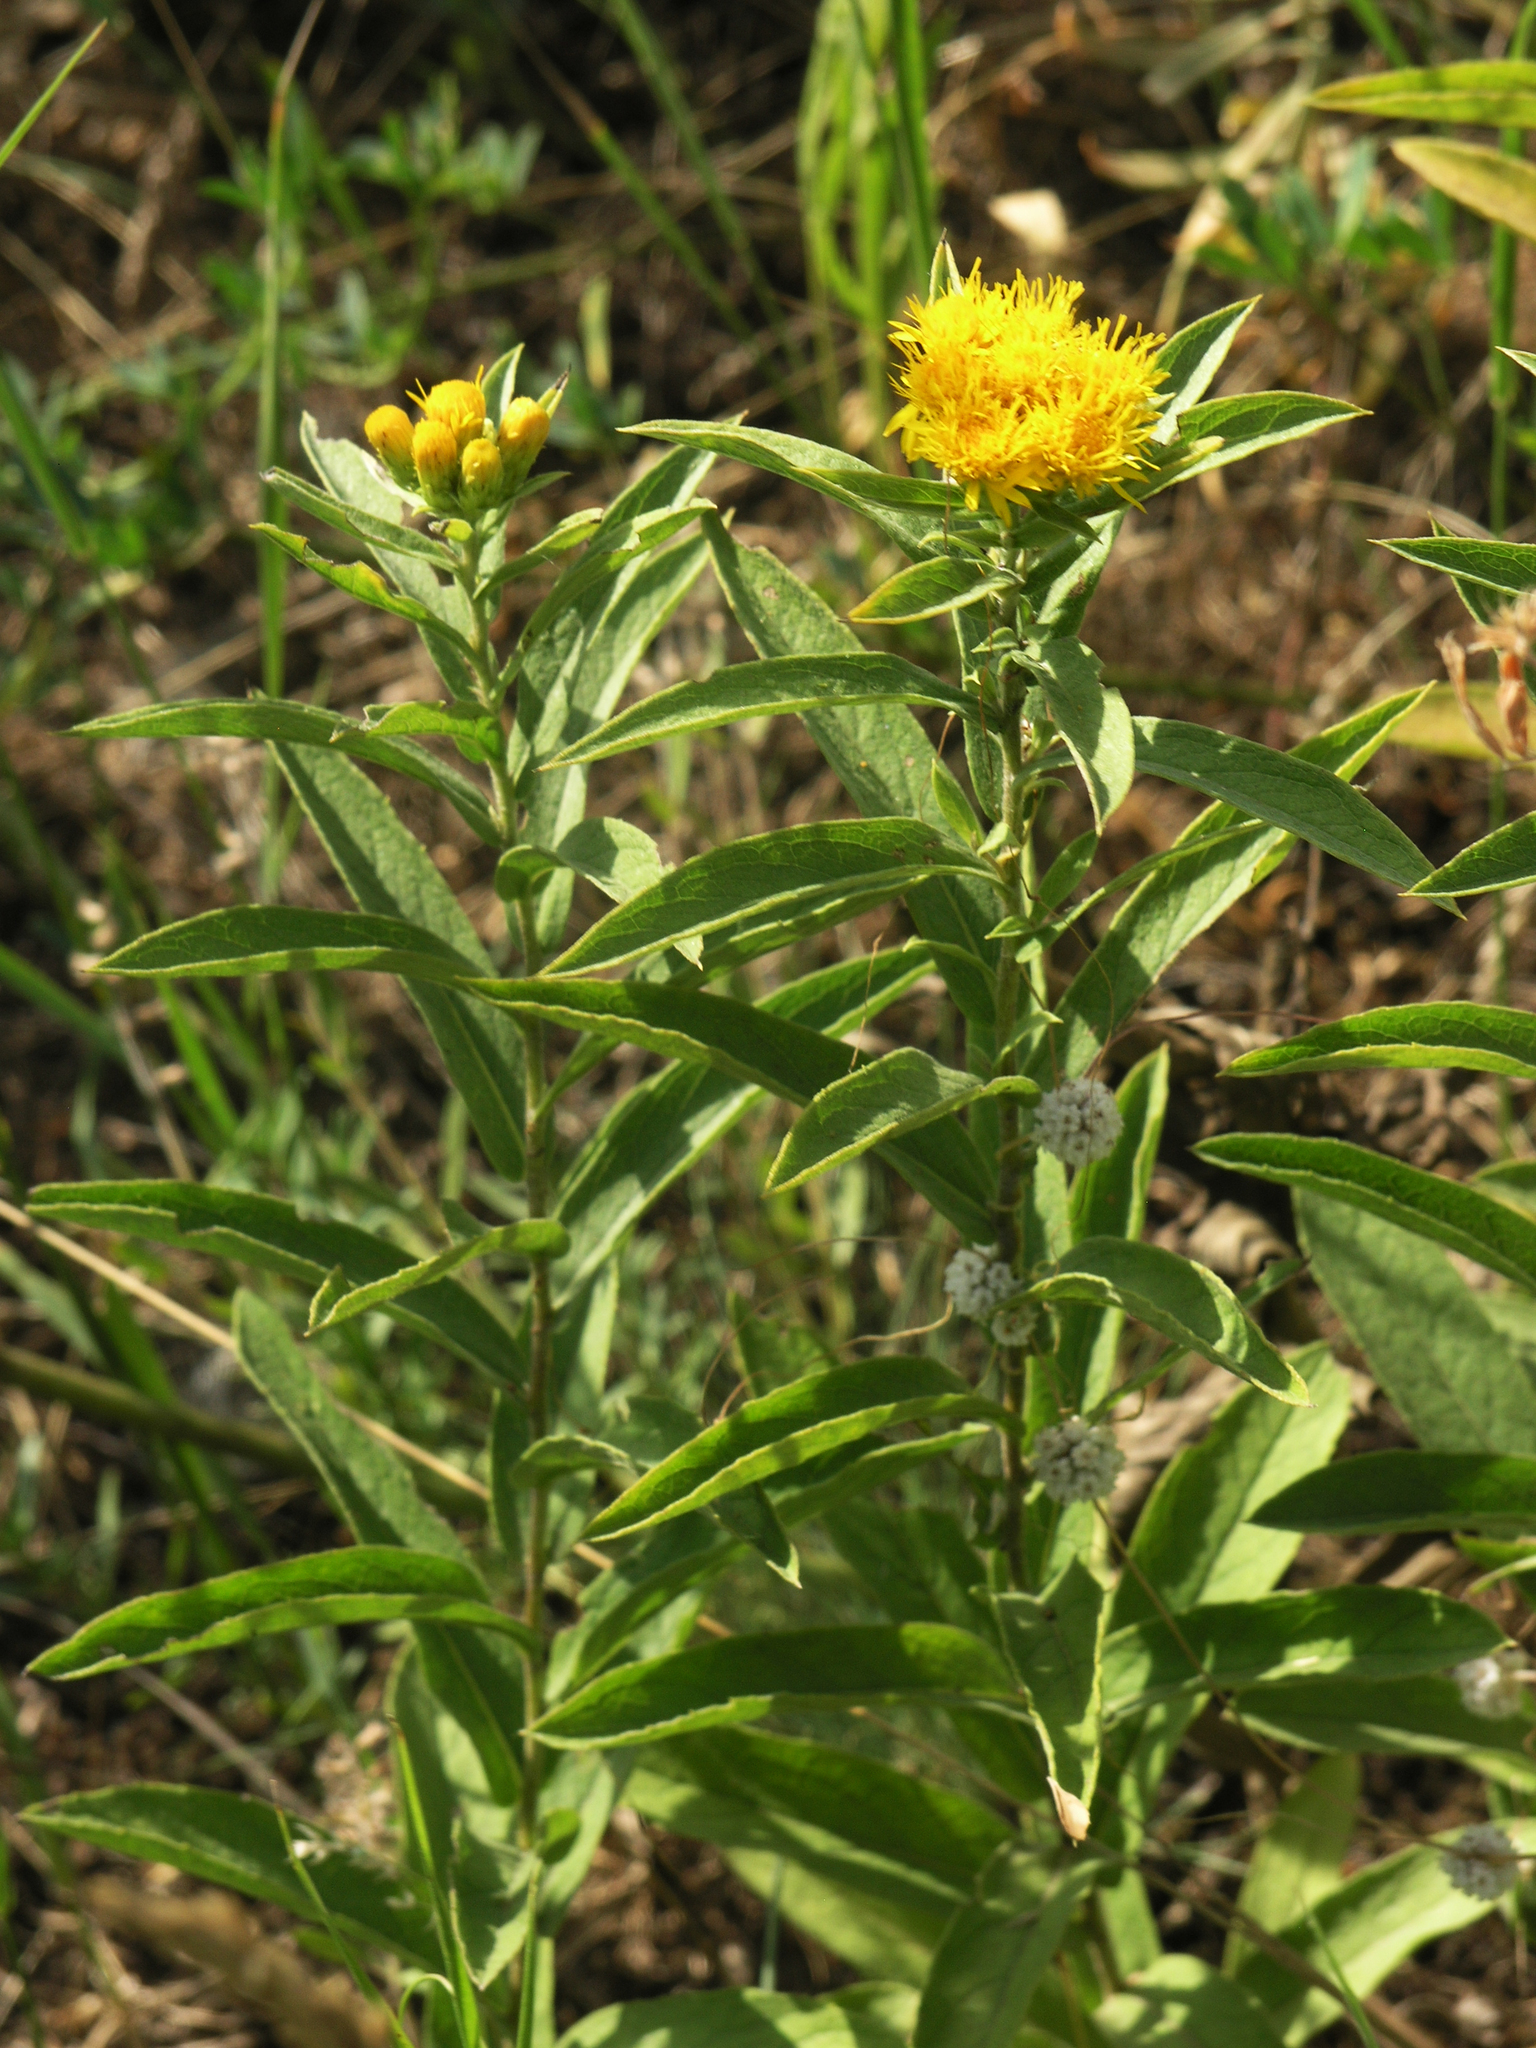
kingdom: Plantae
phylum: Tracheophyta
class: Magnoliopsida
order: Asterales
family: Asteraceae
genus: Pentanema
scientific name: Pentanema germanicum
